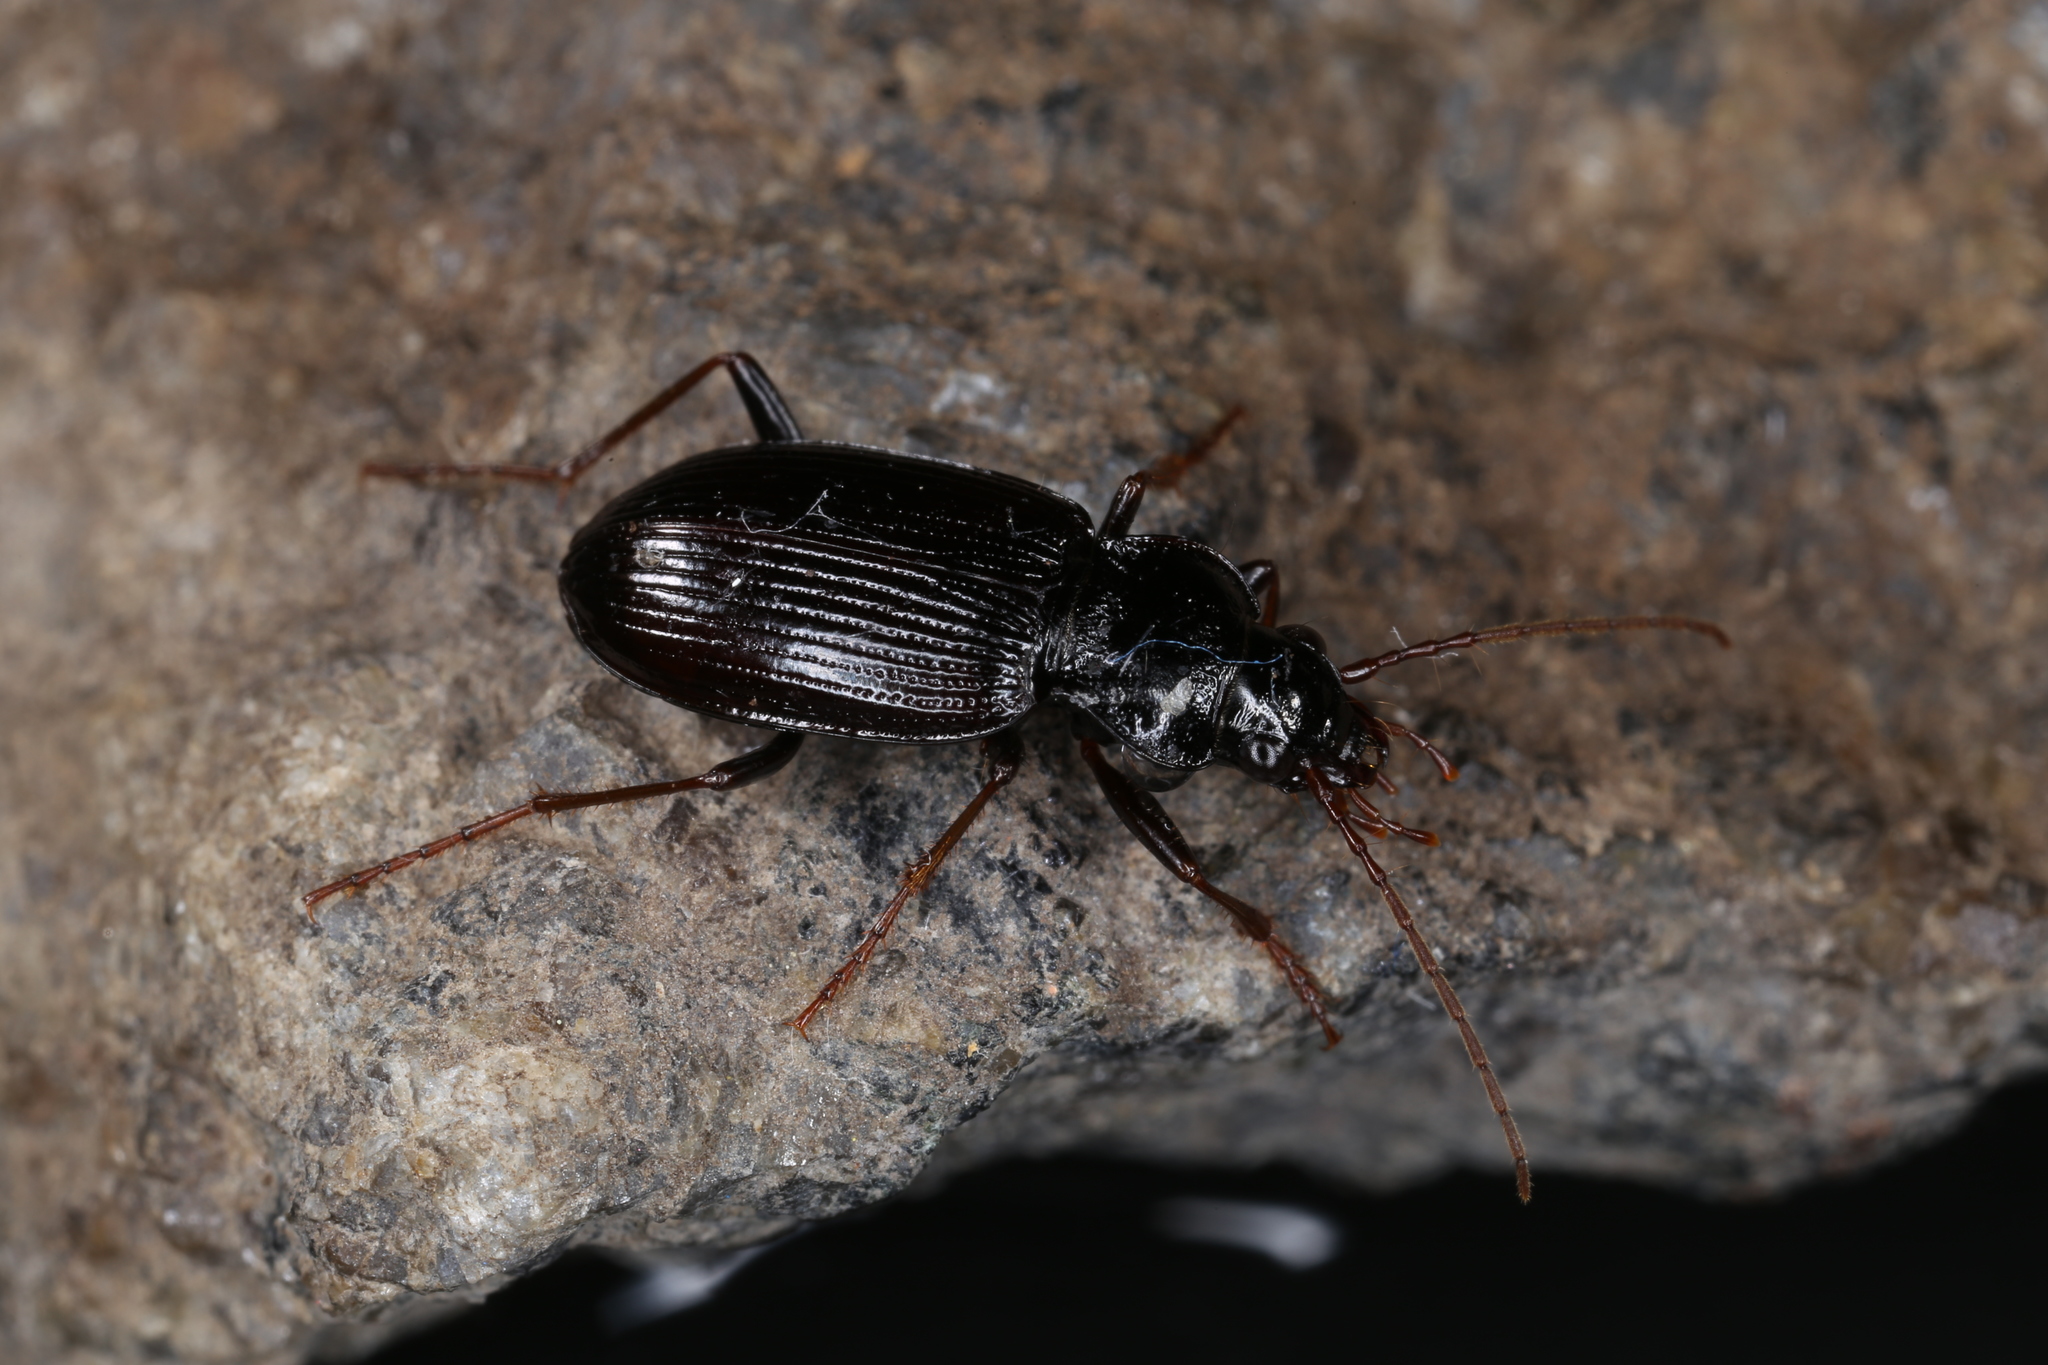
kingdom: Animalia
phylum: Arthropoda
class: Insecta
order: Coleoptera
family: Carabidae
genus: Nebria
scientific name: Nebria brevicollis
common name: Short-necked gazelle beetle
